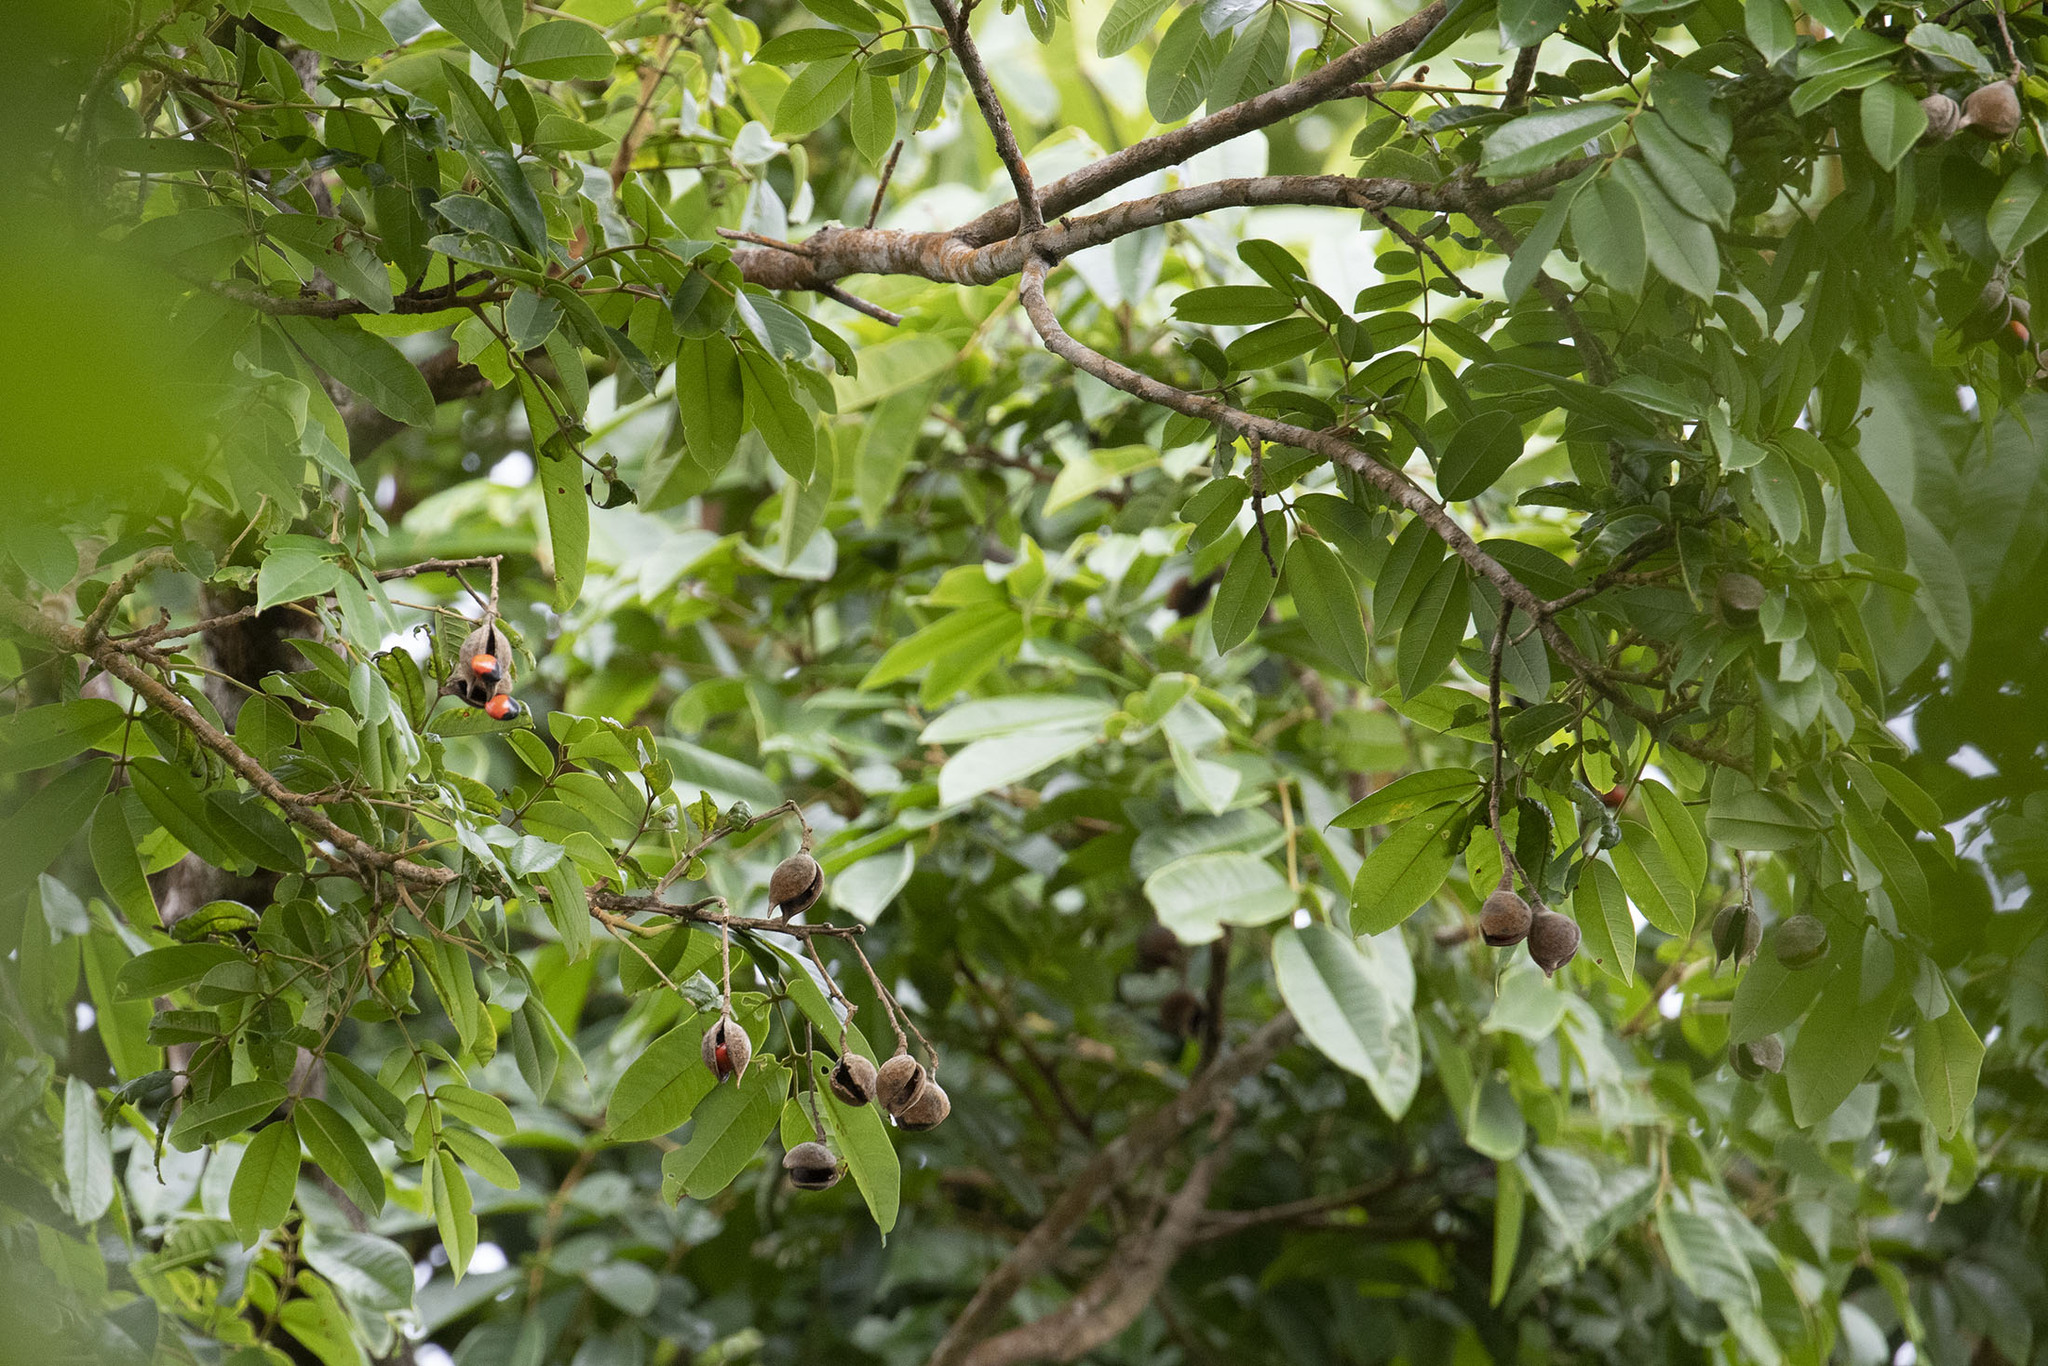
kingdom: Plantae
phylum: Tracheophyta
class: Magnoliopsida
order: Fabales
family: Fabaceae
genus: Ormosia
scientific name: Ormosia monosperma
